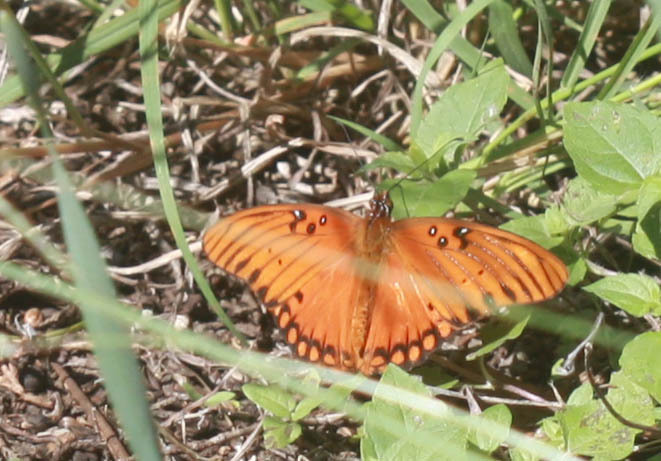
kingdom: Animalia
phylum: Arthropoda
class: Insecta
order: Lepidoptera
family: Nymphalidae
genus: Dione
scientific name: Dione vanillae
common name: Gulf fritillary
